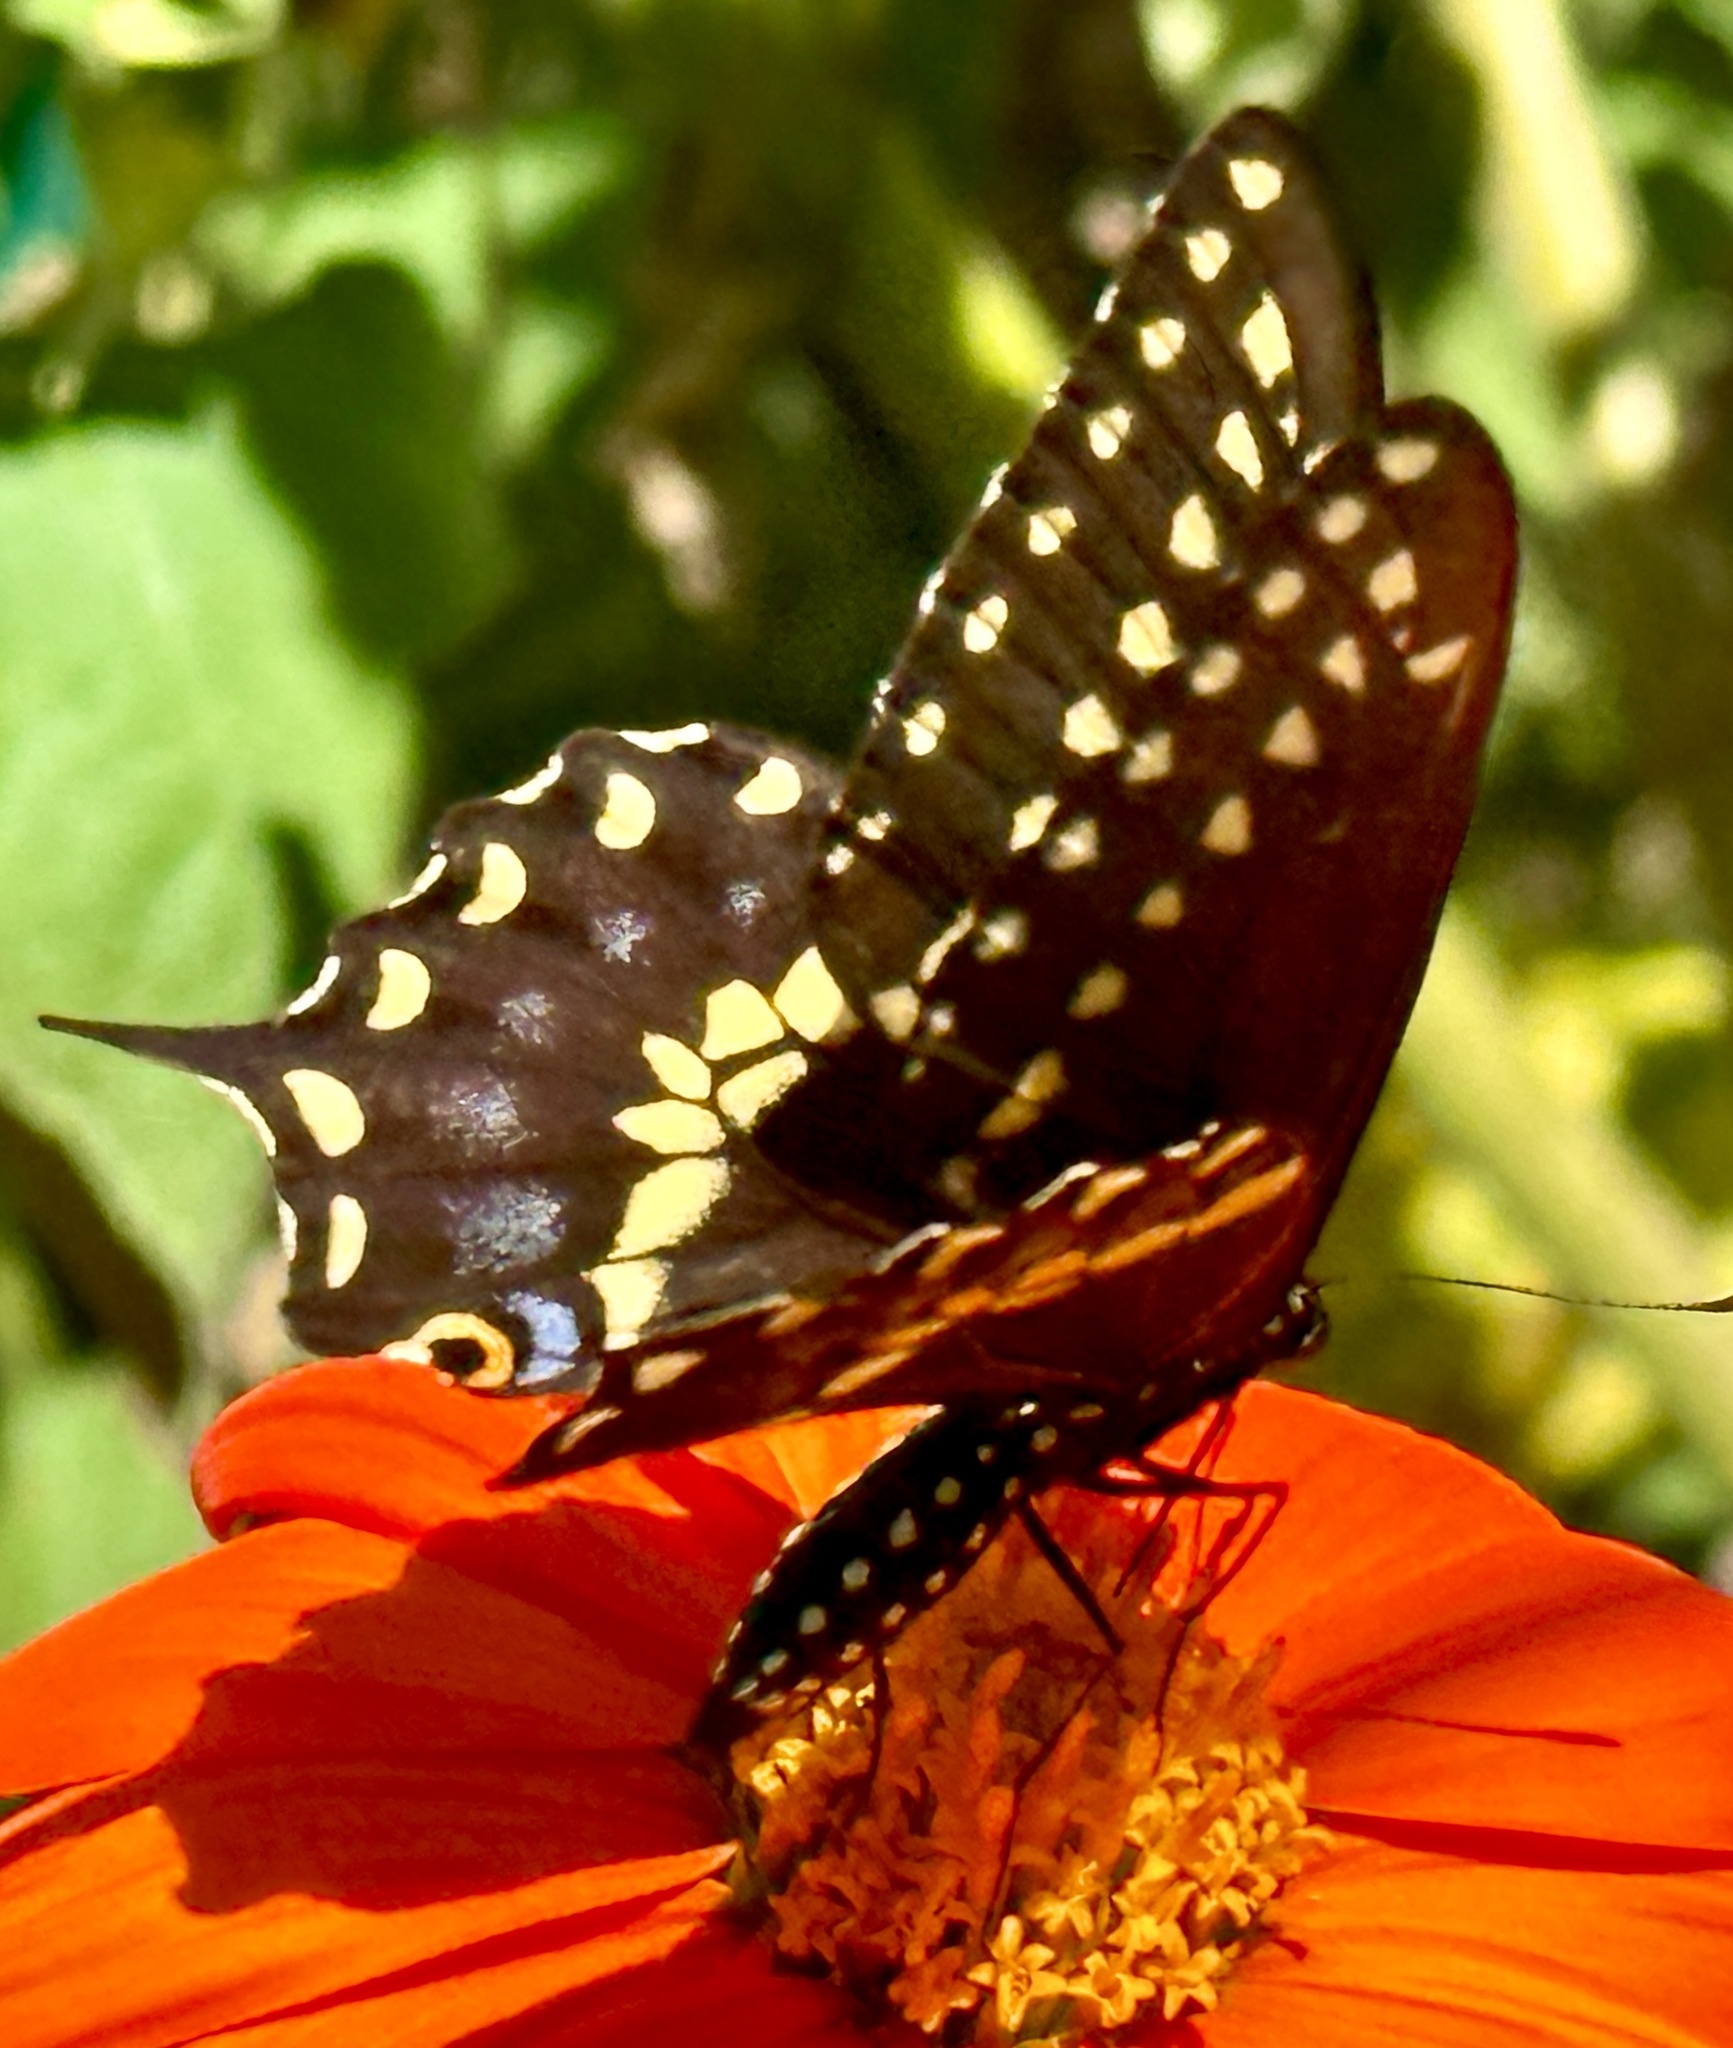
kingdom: Animalia
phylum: Arthropoda
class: Insecta
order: Lepidoptera
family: Papilionidae
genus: Papilio
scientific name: Papilio polyxenes
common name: Black swallowtail
